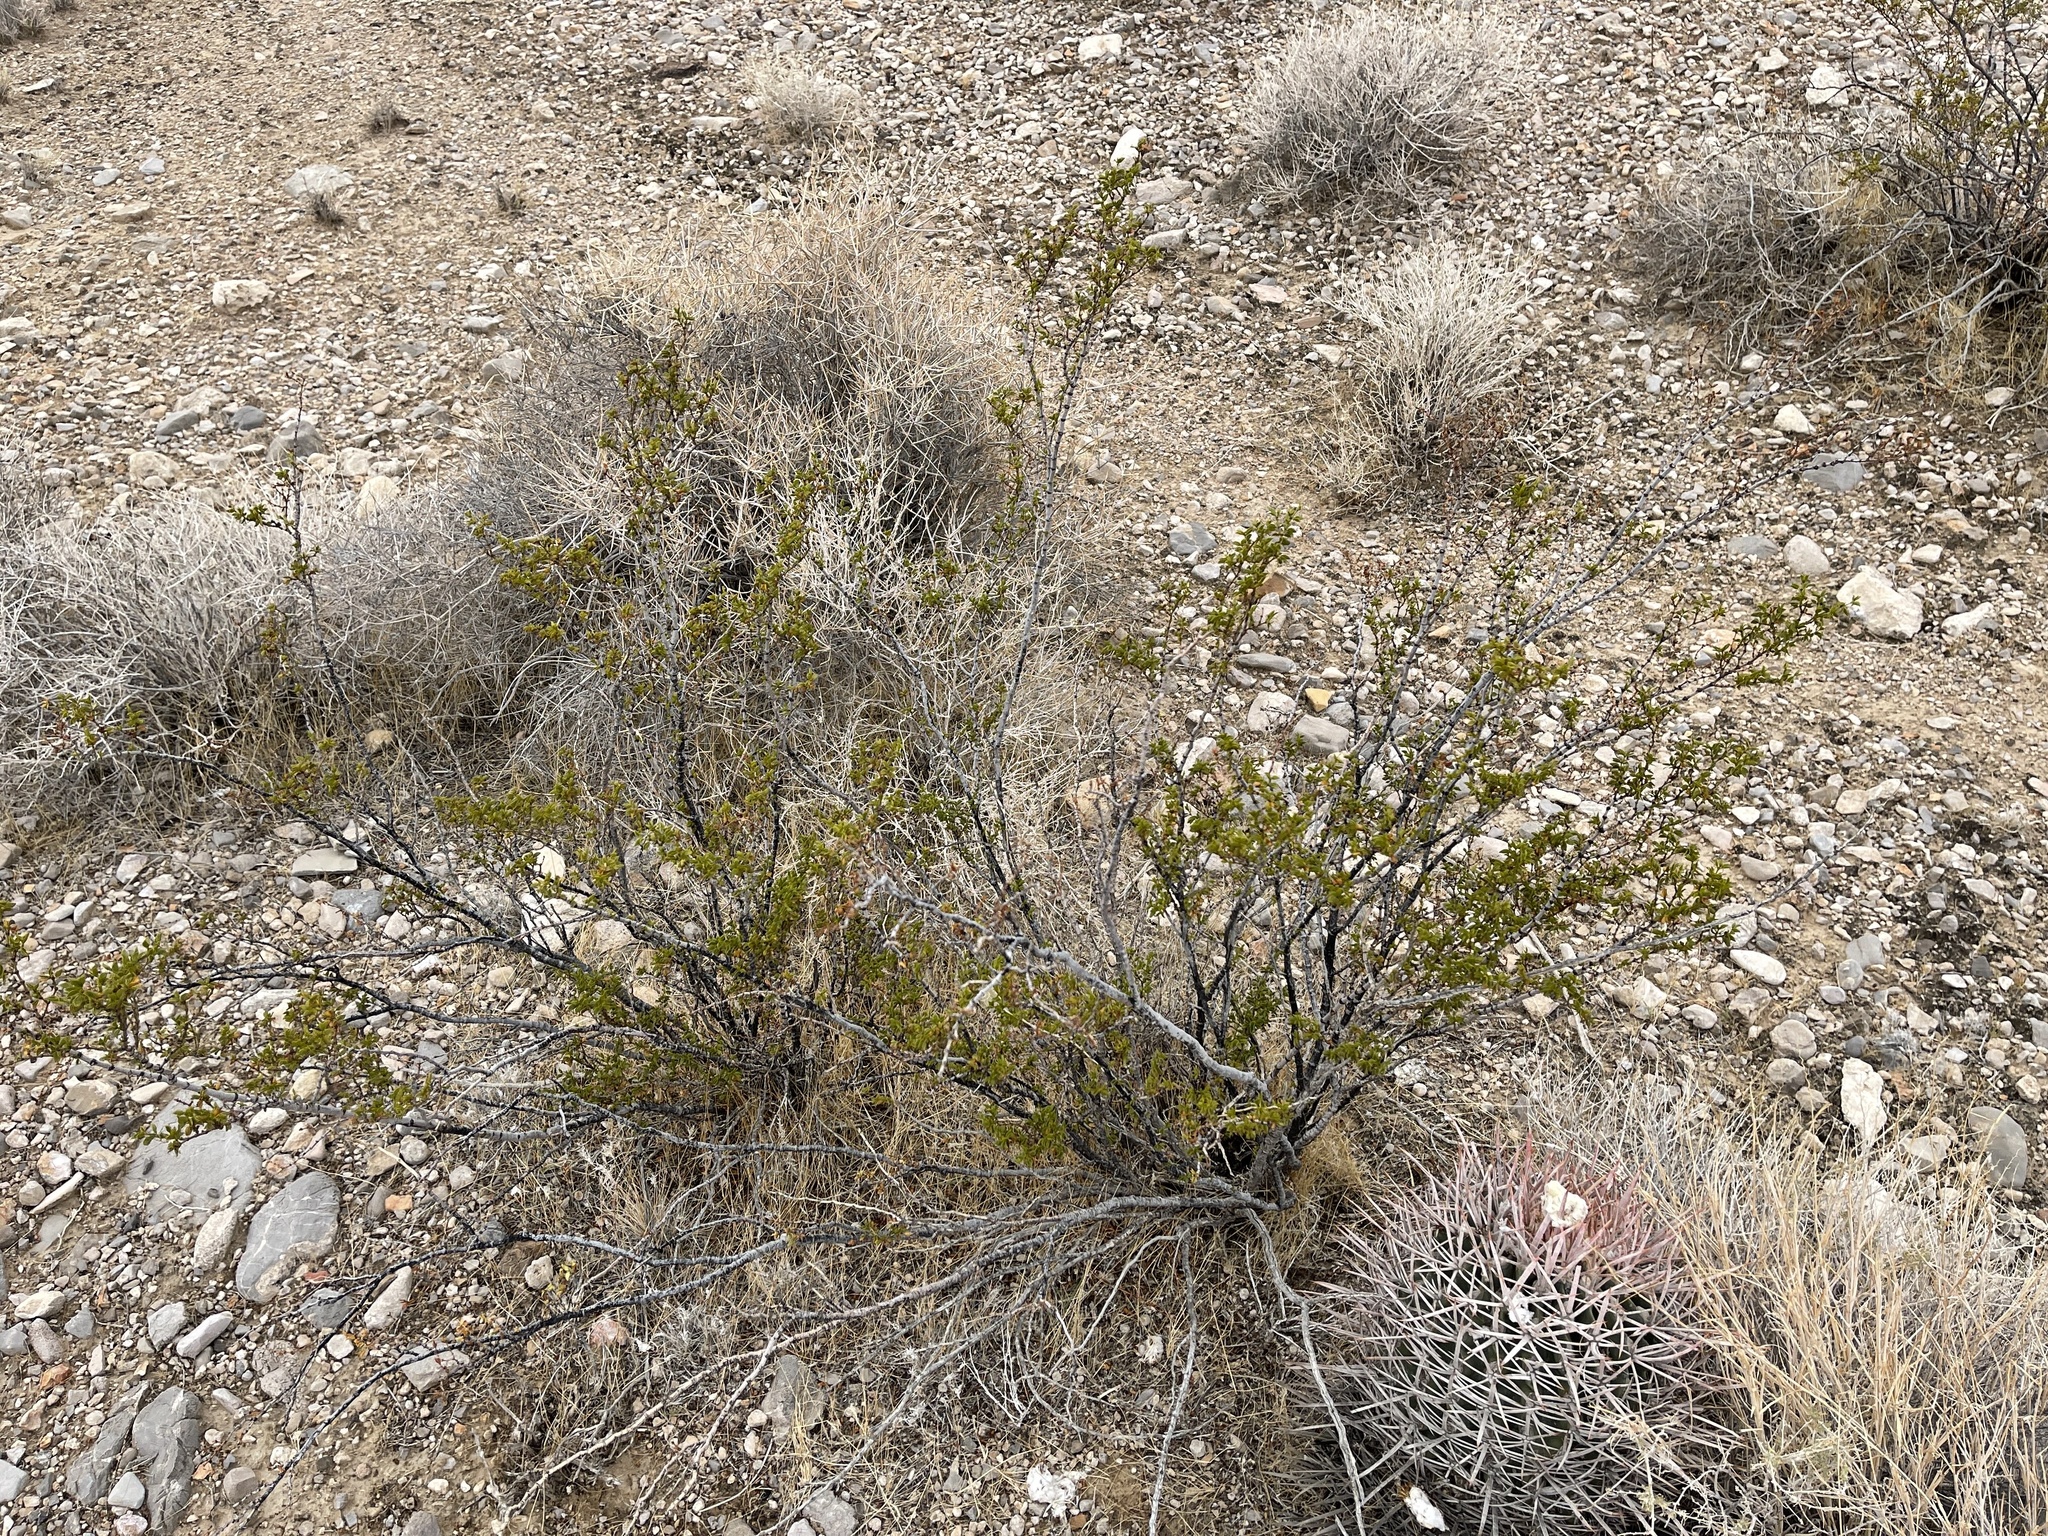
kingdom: Plantae
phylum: Tracheophyta
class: Magnoliopsida
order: Zygophyllales
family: Zygophyllaceae
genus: Larrea
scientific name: Larrea tridentata
